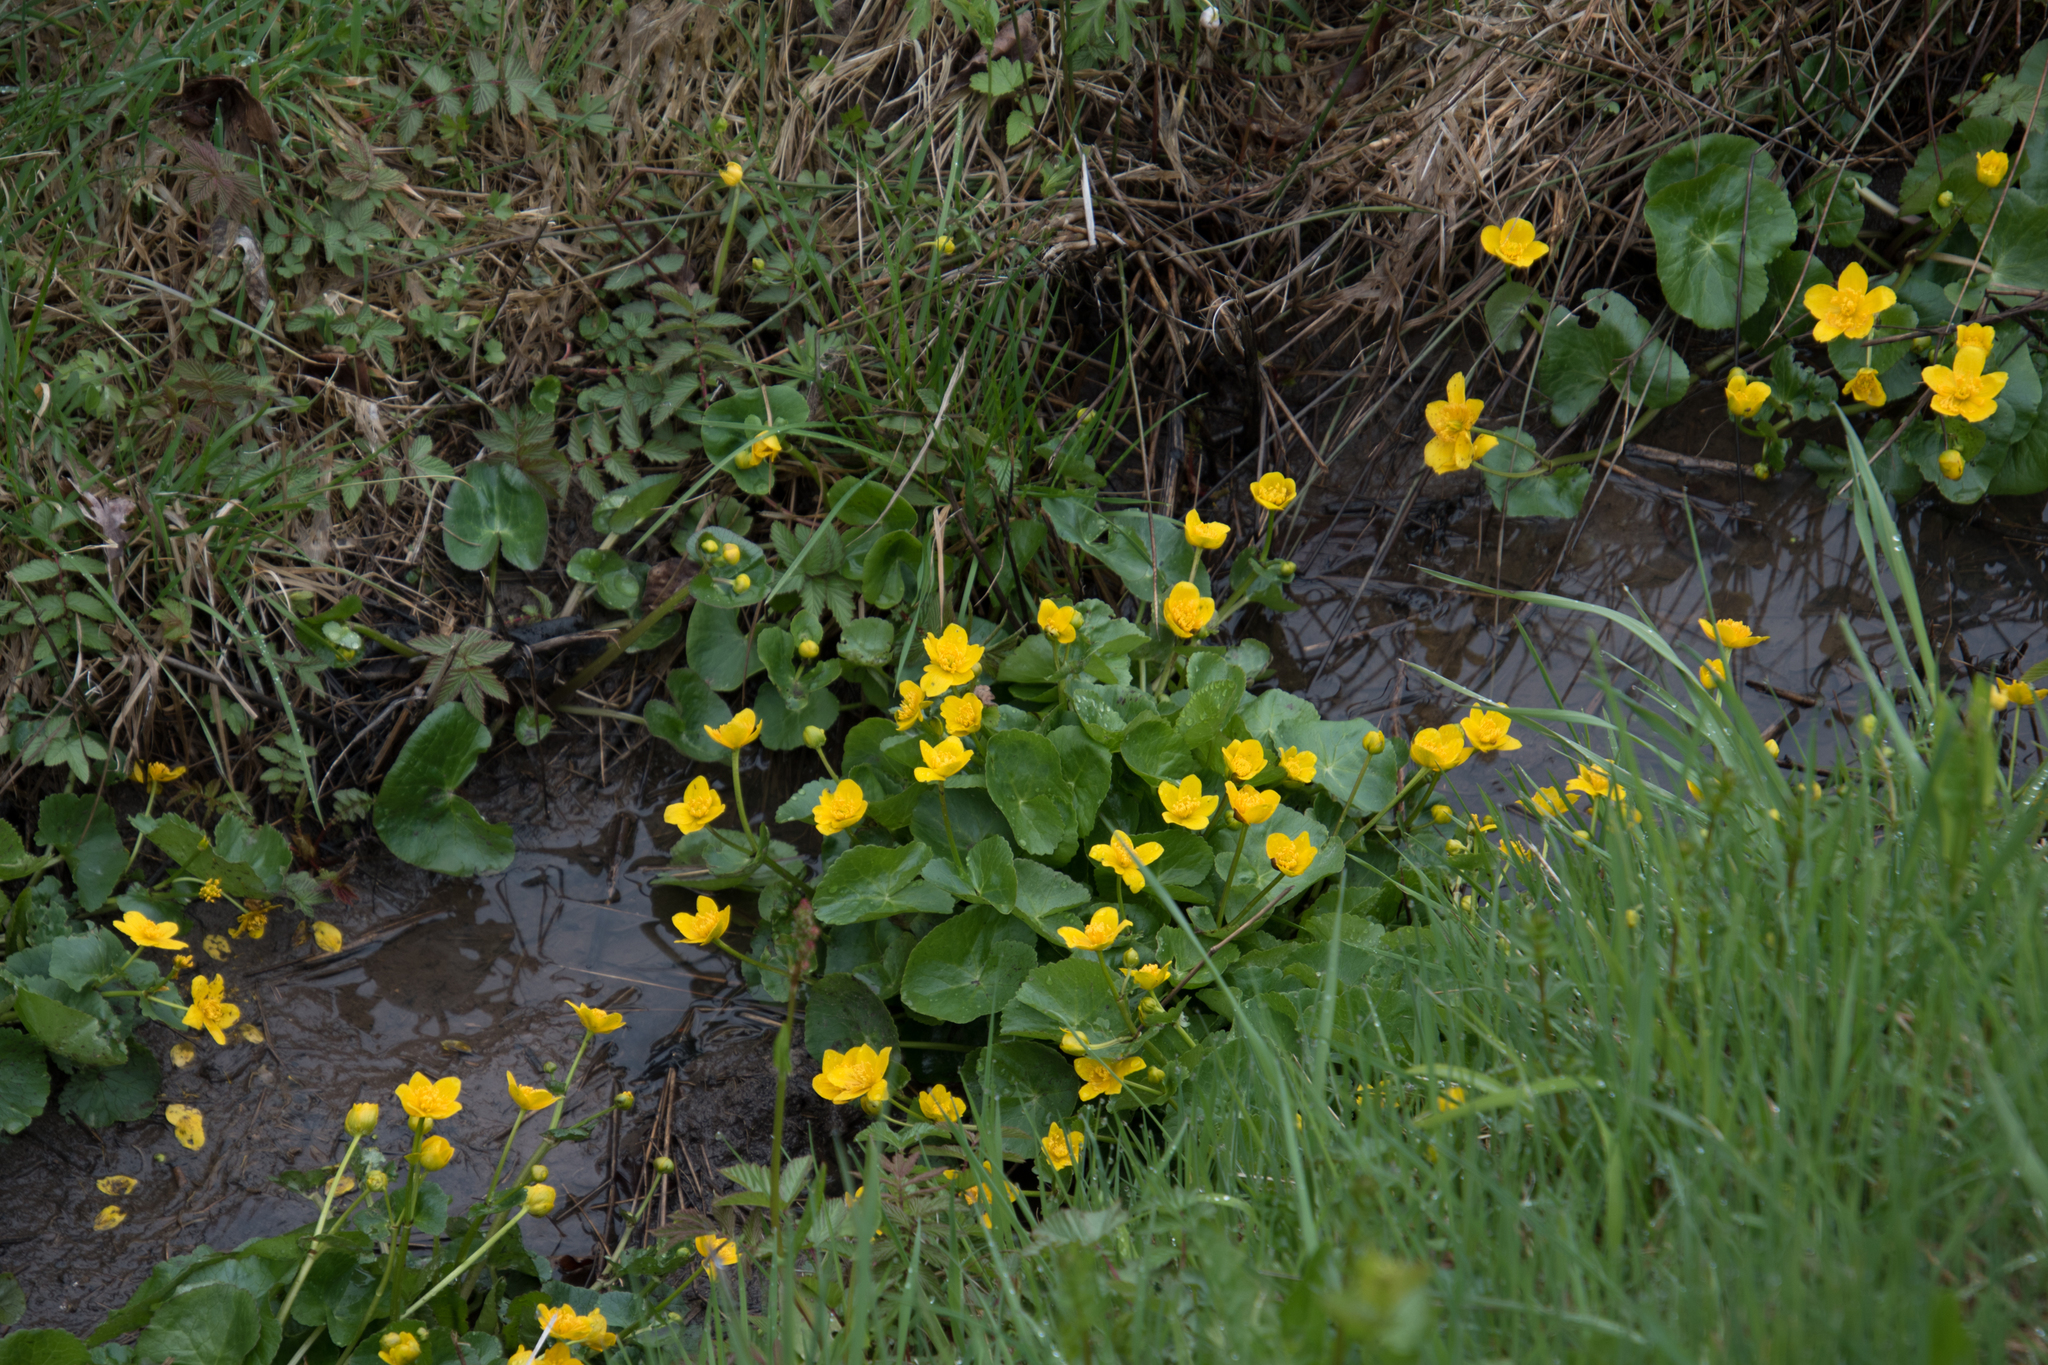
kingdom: Plantae
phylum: Tracheophyta
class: Magnoliopsida
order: Ranunculales
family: Ranunculaceae
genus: Caltha
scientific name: Caltha palustris
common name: Marsh marigold
